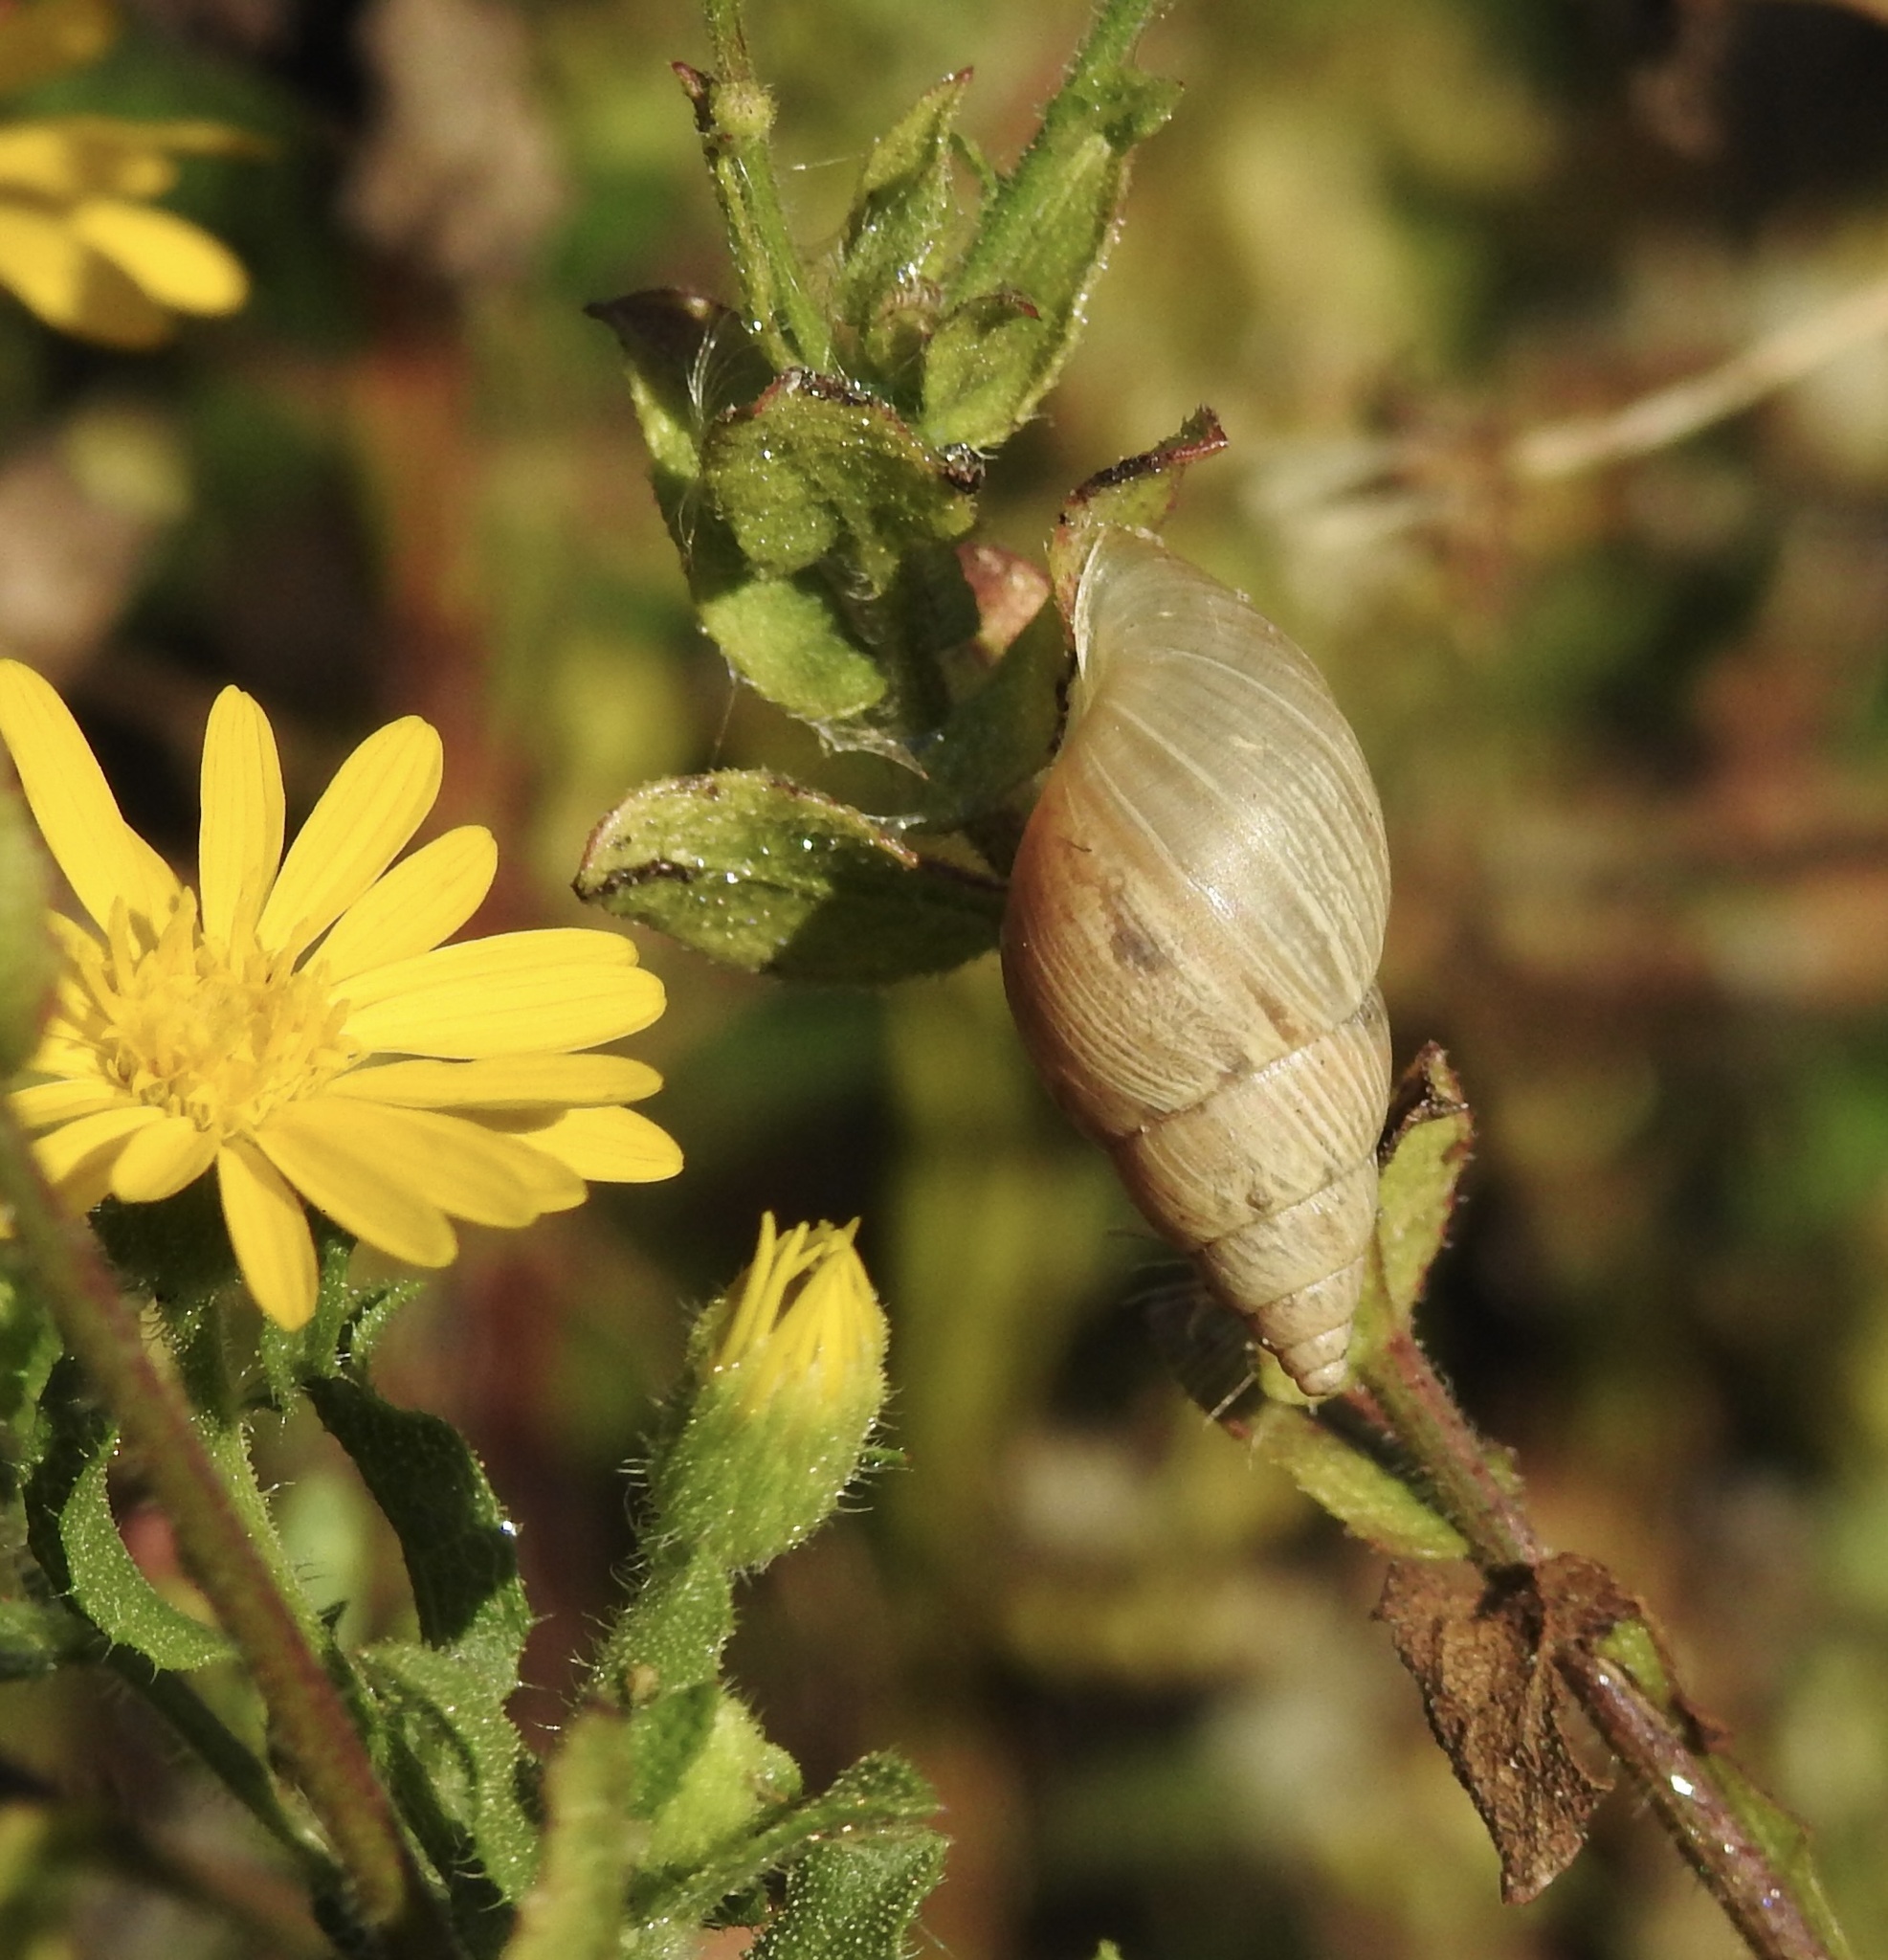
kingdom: Animalia
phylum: Mollusca
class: Gastropoda
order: Stylommatophora
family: Bulimulidae
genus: Bulimulus
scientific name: Bulimulus bonariensis
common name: Snail
